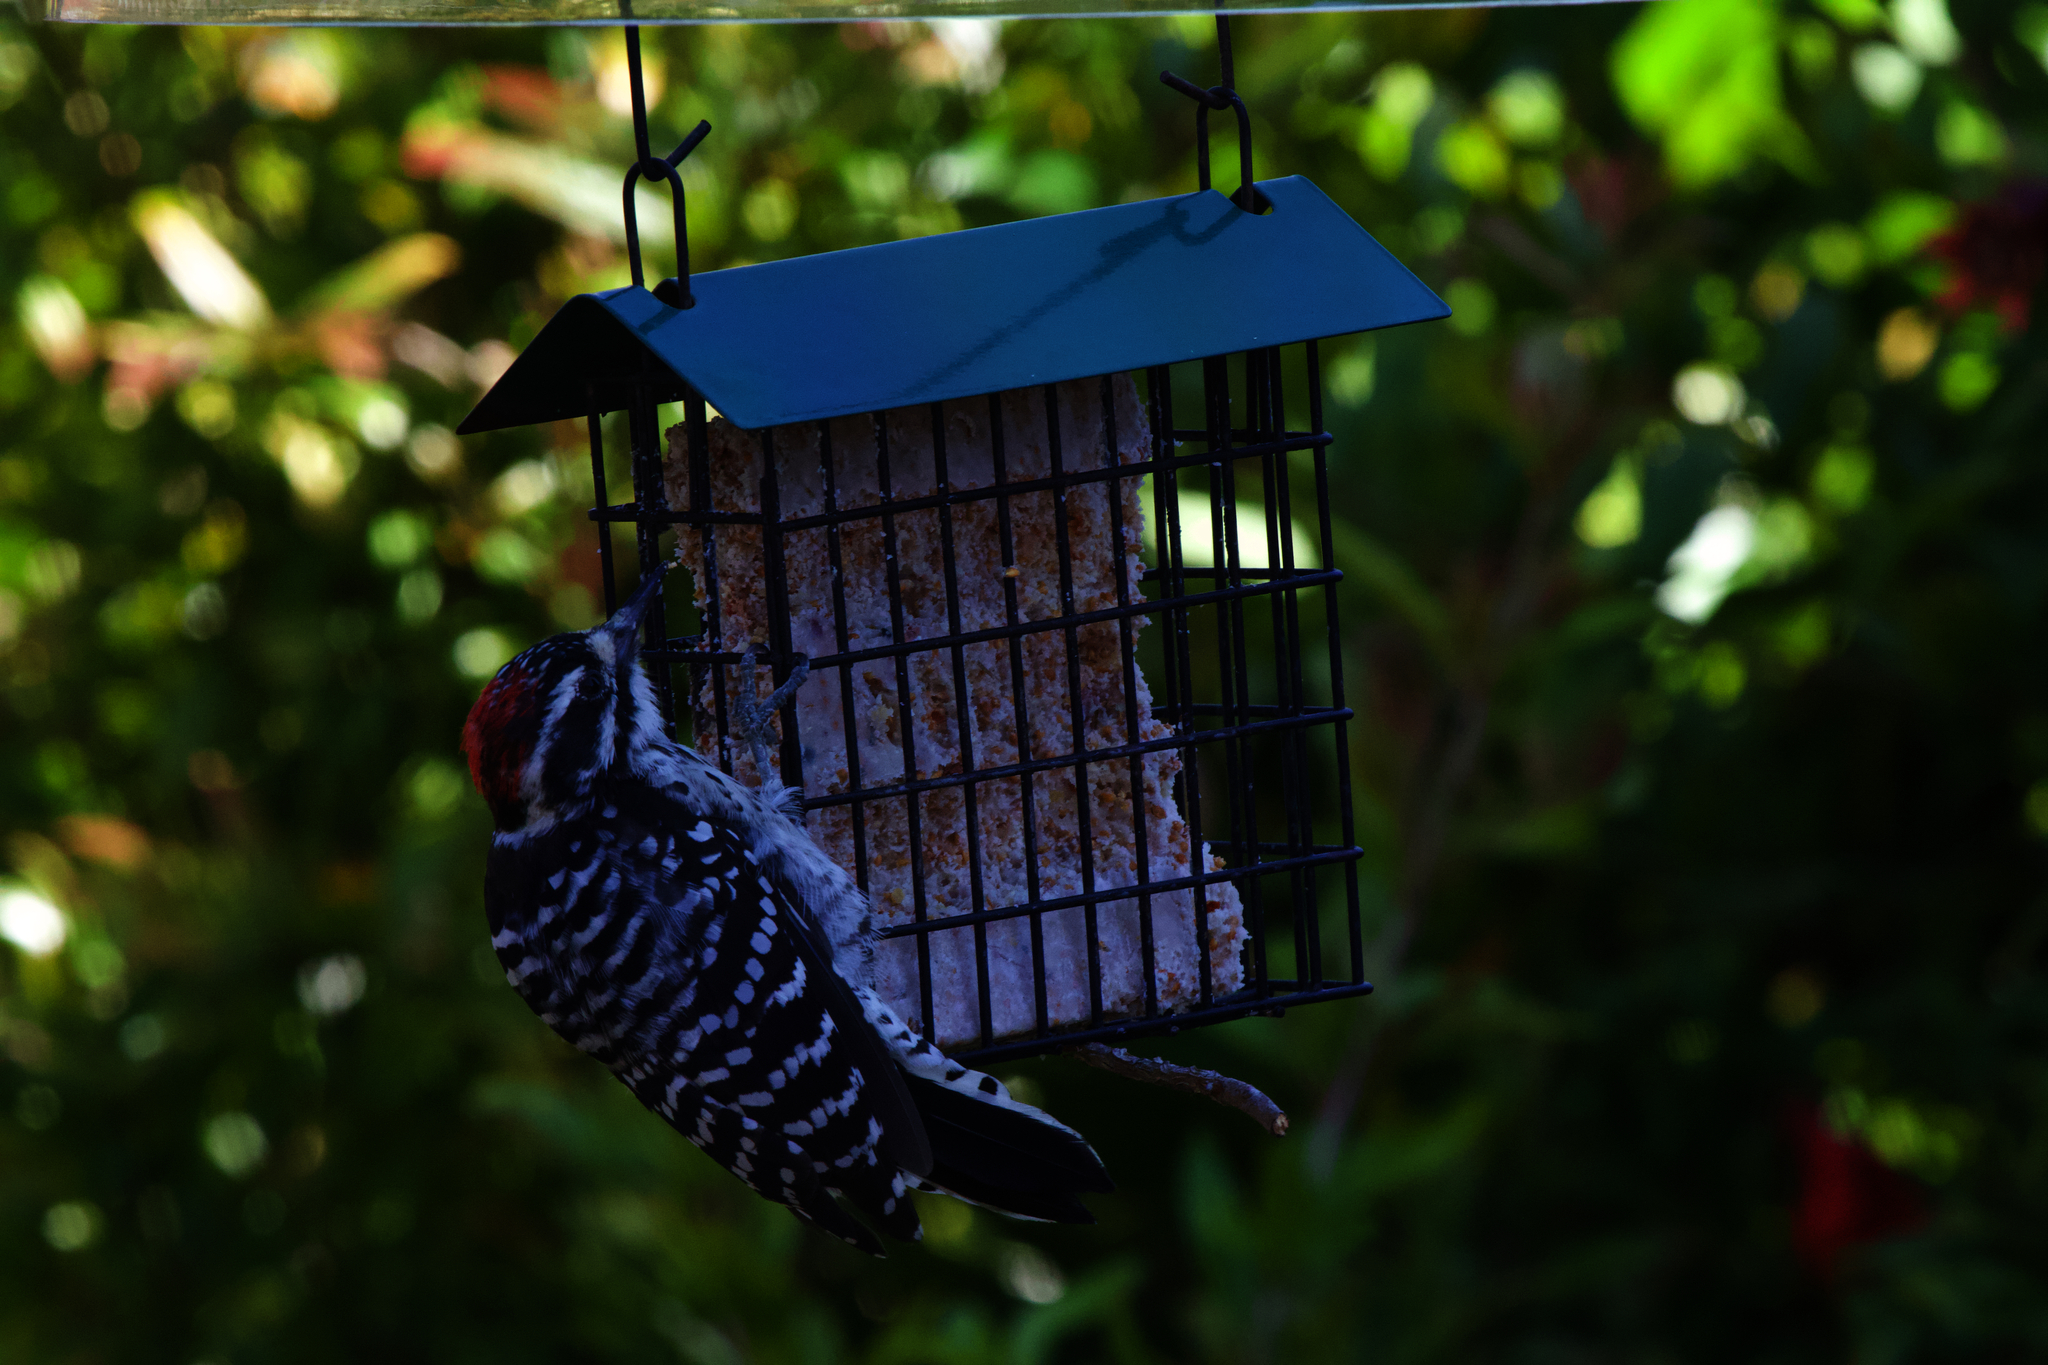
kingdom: Animalia
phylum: Chordata
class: Aves
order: Piciformes
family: Picidae
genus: Dryobates
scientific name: Dryobates nuttallii
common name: Nuttall's woodpecker
